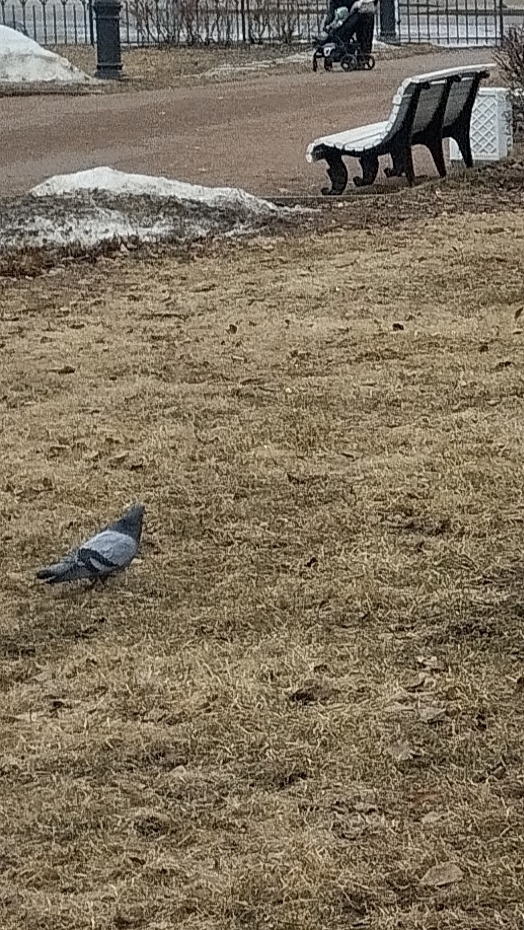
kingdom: Animalia
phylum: Chordata
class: Aves
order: Columbiformes
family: Columbidae
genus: Columba
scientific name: Columba livia
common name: Rock pigeon
